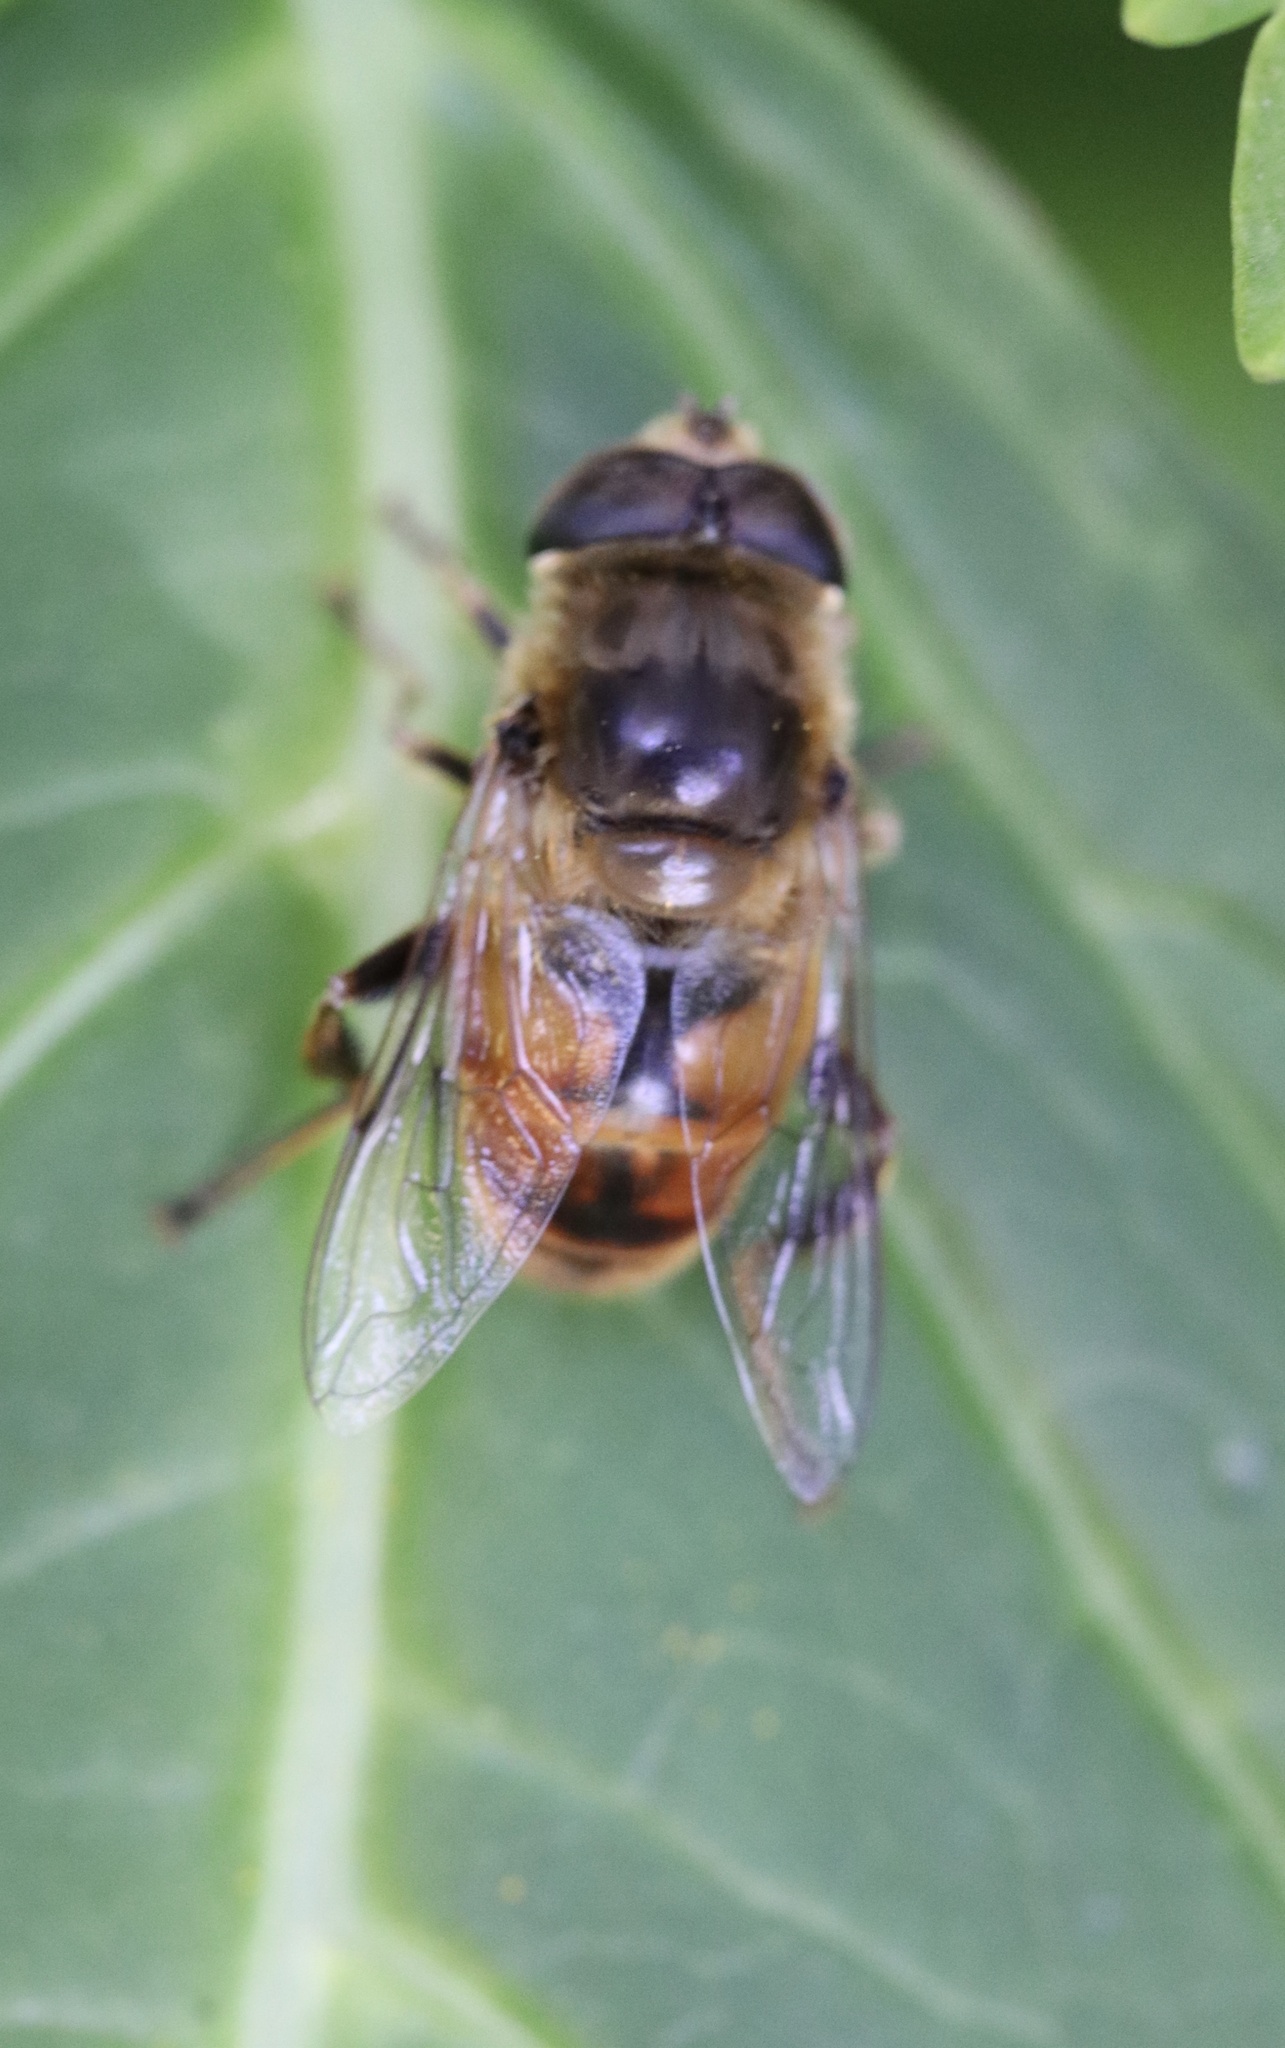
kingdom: Animalia
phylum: Arthropoda
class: Insecta
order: Diptera
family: Syrphidae
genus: Eristalis
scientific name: Eristalis tenax
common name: Drone fly
